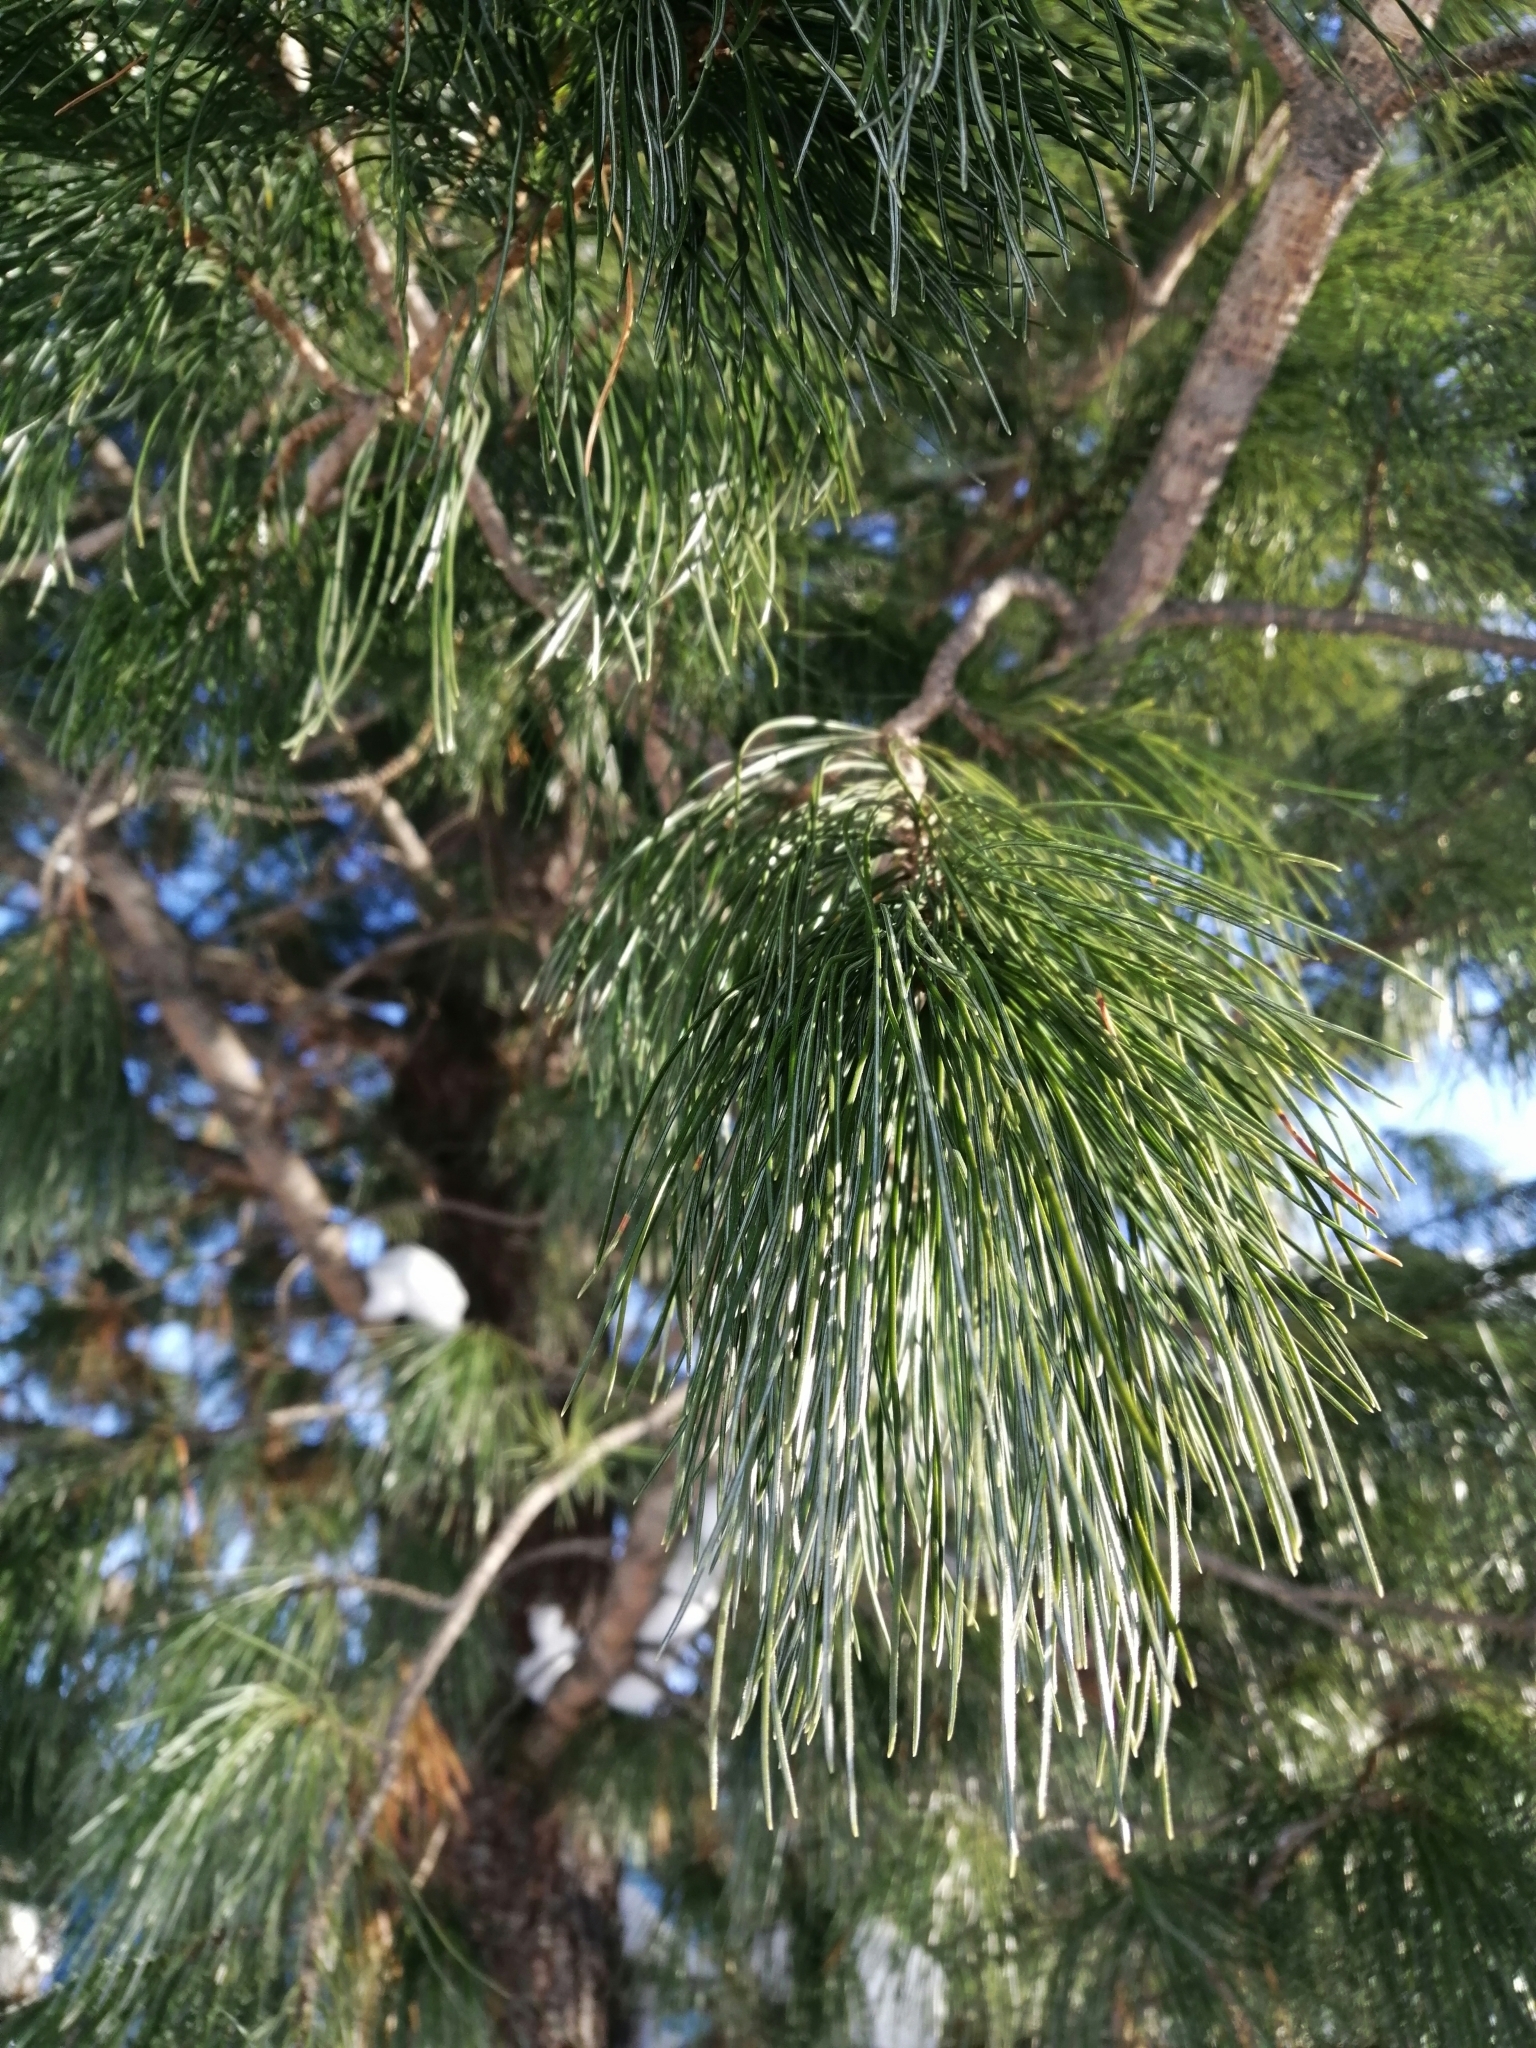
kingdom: Plantae
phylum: Tracheophyta
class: Pinopsida
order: Pinales
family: Pinaceae
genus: Pinus
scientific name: Pinus sibirica
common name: Siberian pine
